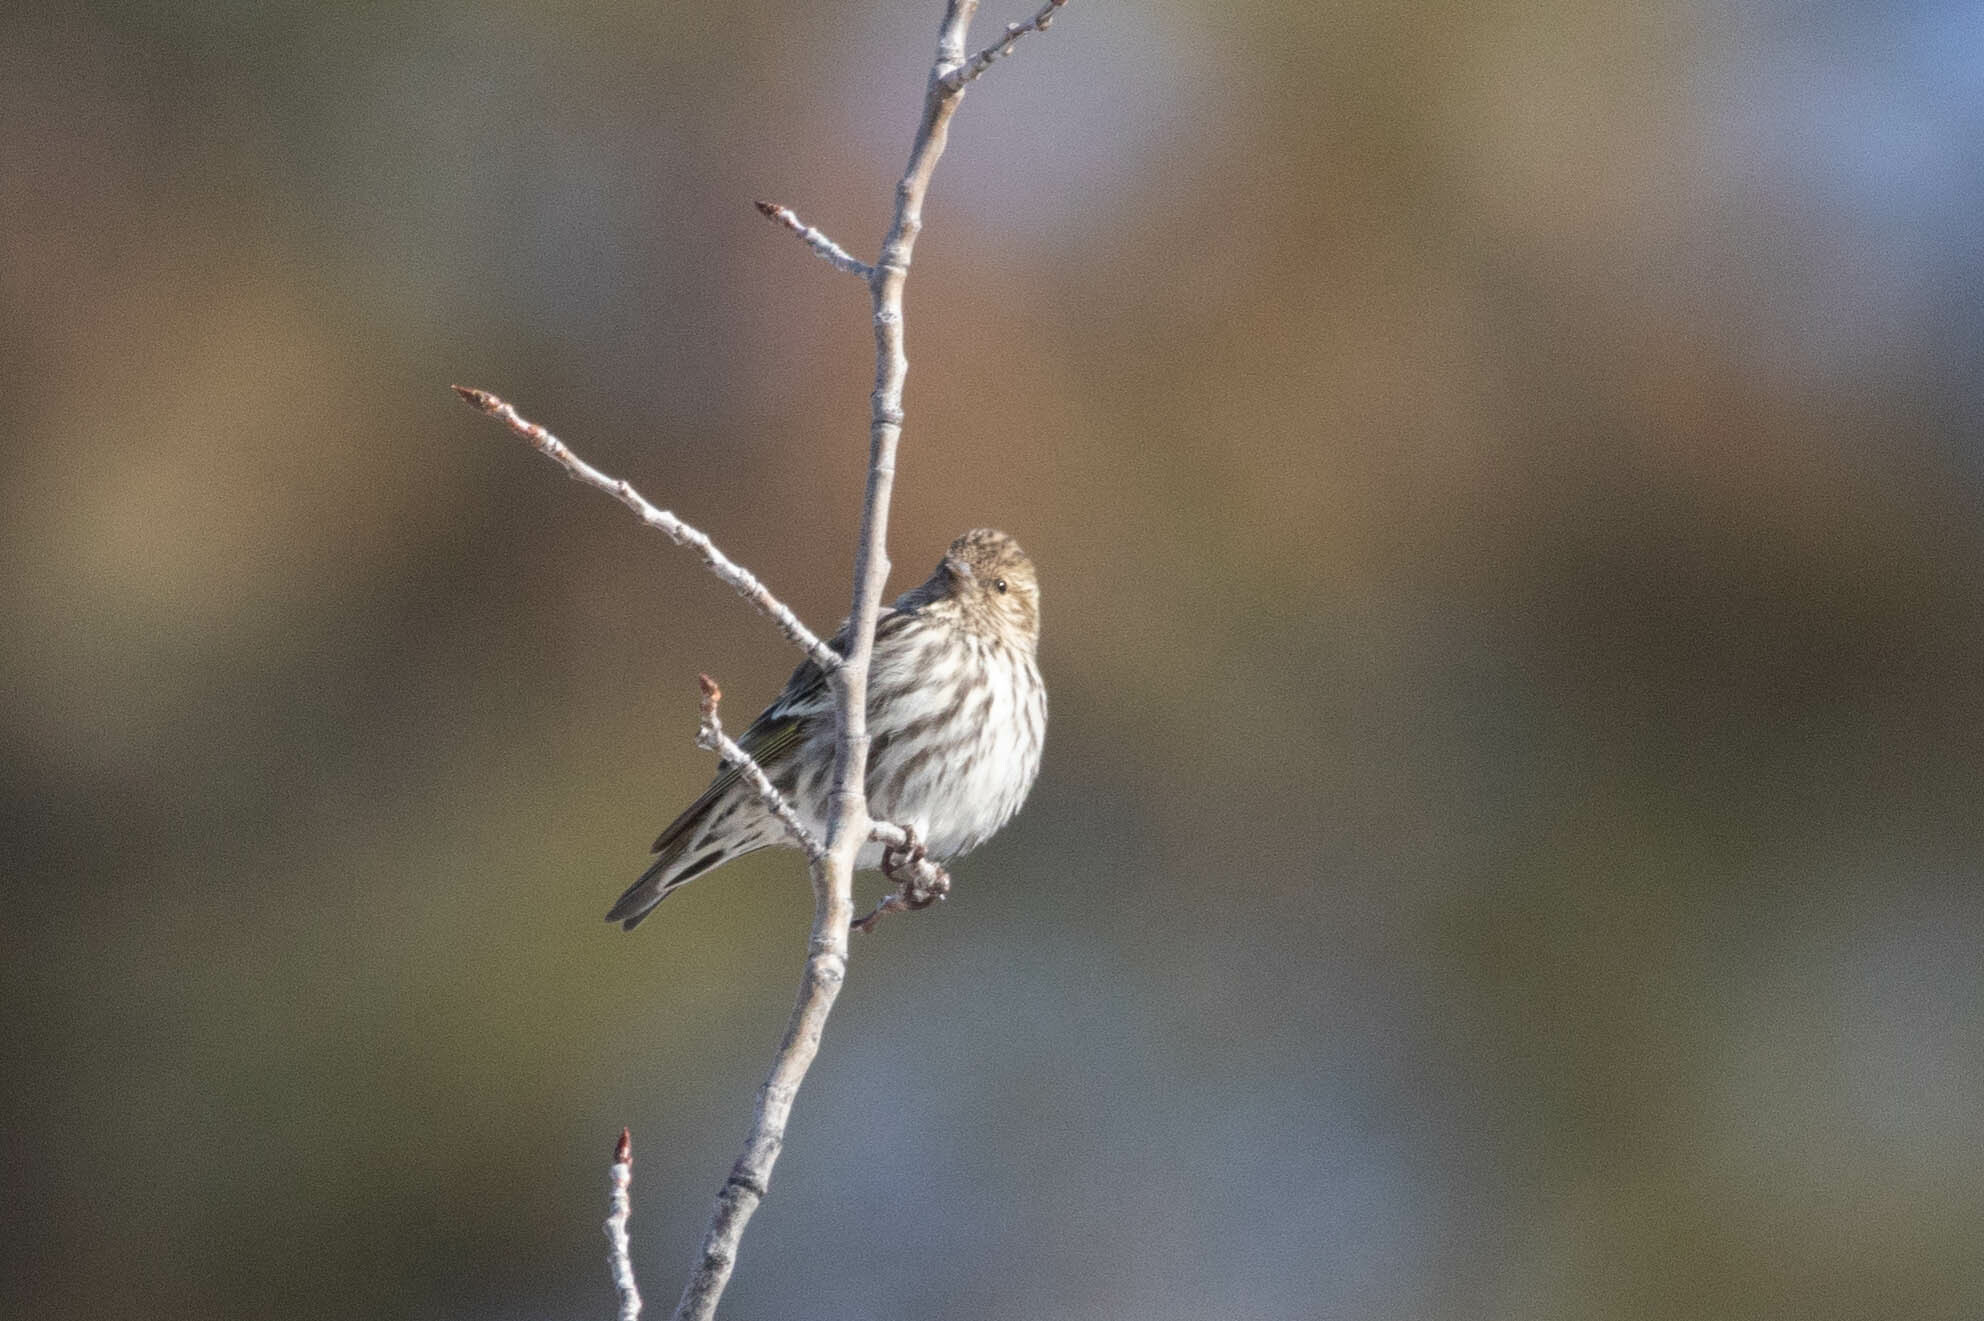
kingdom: Animalia
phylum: Chordata
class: Aves
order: Passeriformes
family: Fringillidae
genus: Spinus
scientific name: Spinus pinus
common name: Pine siskin
